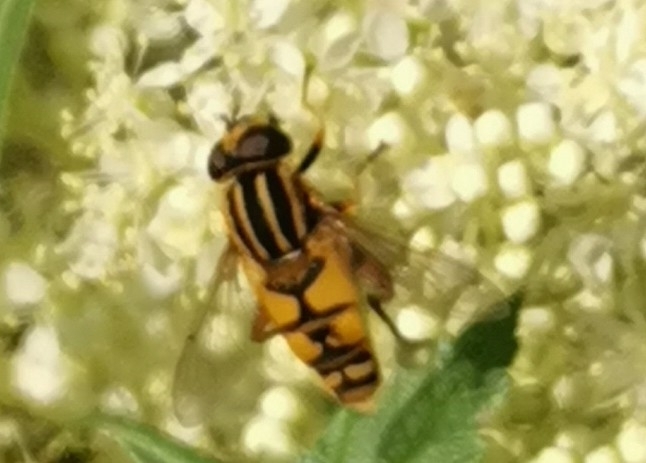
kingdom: Animalia
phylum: Arthropoda
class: Insecta
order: Diptera
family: Syrphidae
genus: Helophilus
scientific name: Helophilus pendulus
